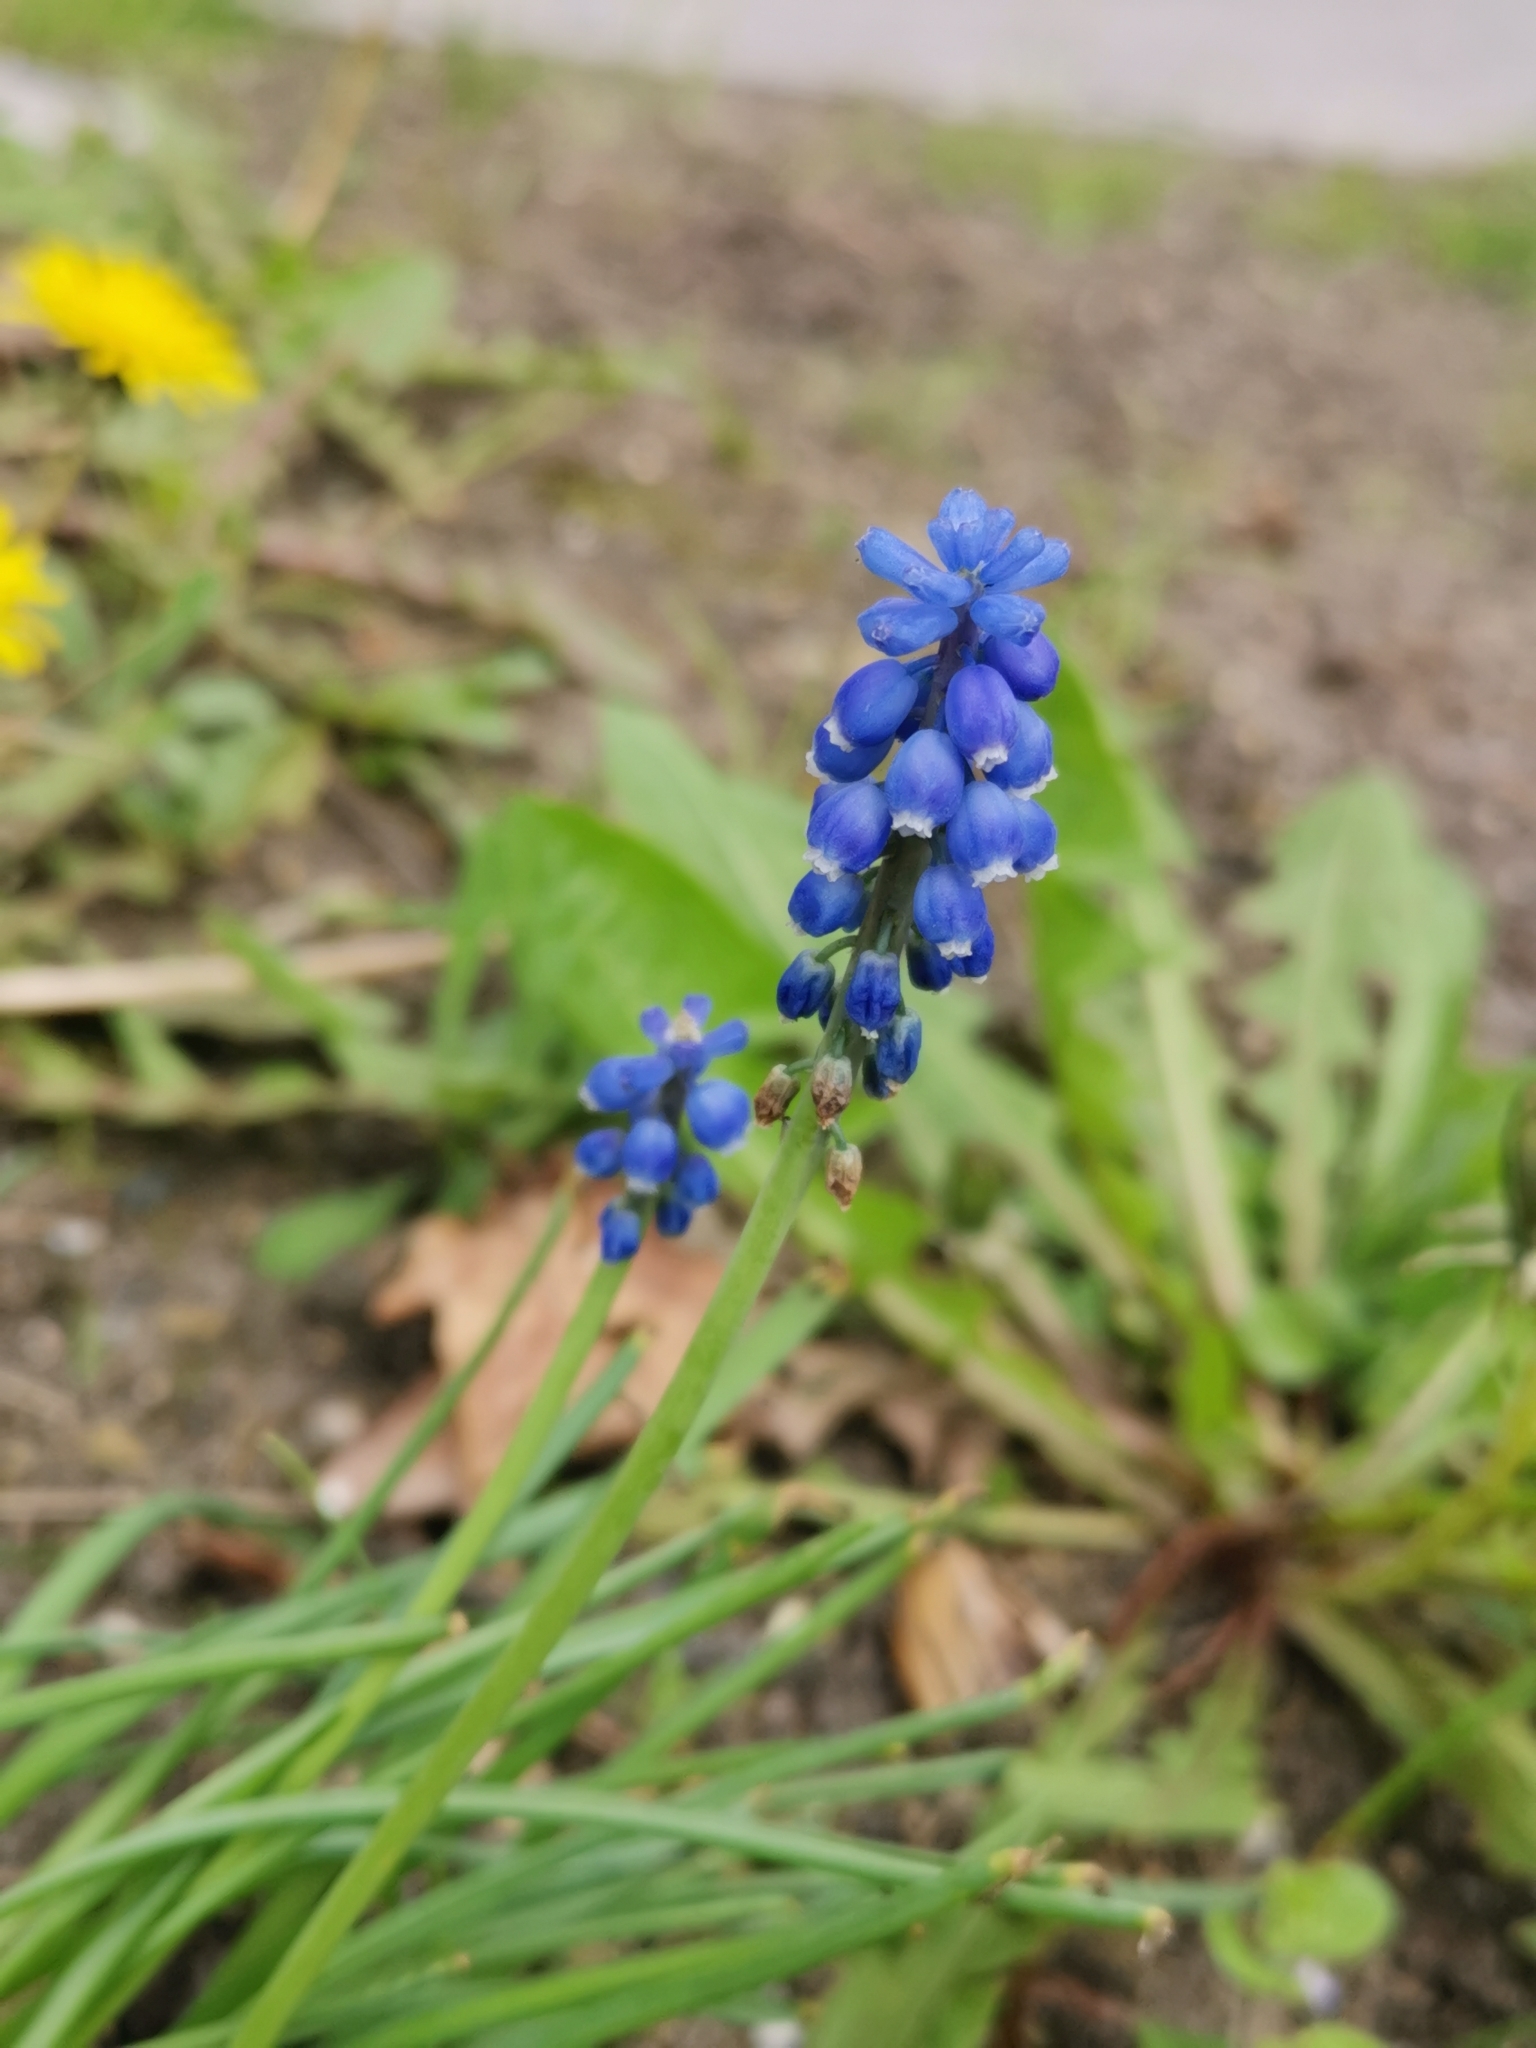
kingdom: Plantae
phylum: Tracheophyta
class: Liliopsida
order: Asparagales
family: Asparagaceae
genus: Muscari
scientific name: Muscari botryoides
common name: Compact grape-hyacinth
